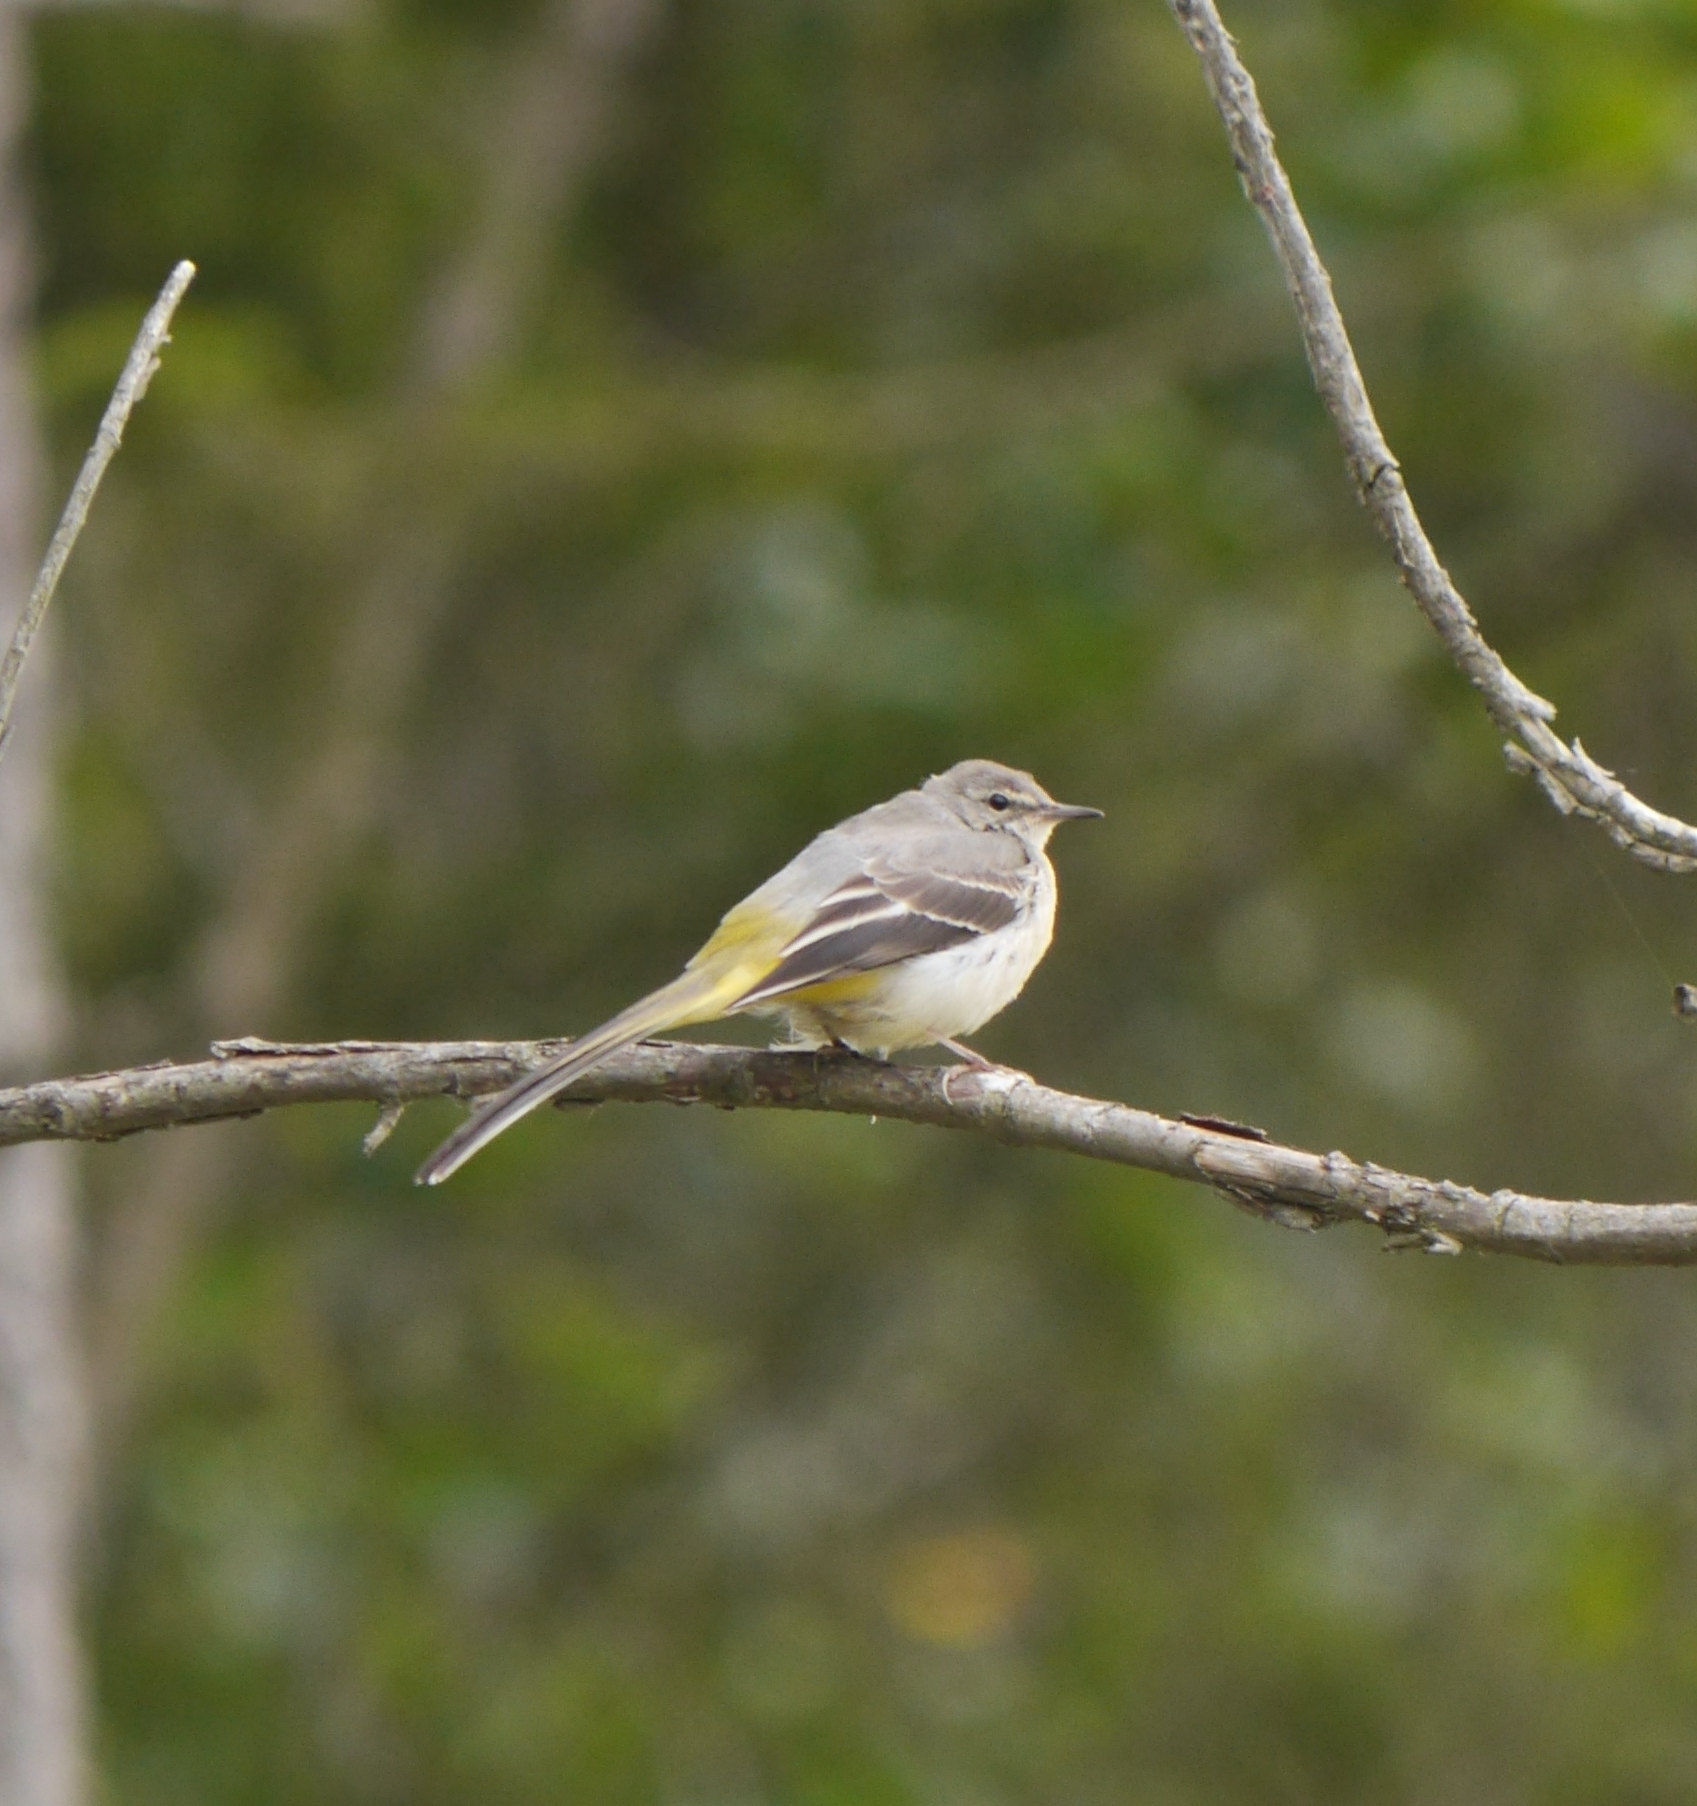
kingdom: Animalia
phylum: Chordata
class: Aves
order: Passeriformes
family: Motacillidae
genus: Motacilla
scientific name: Motacilla cinerea
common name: Grey wagtail
